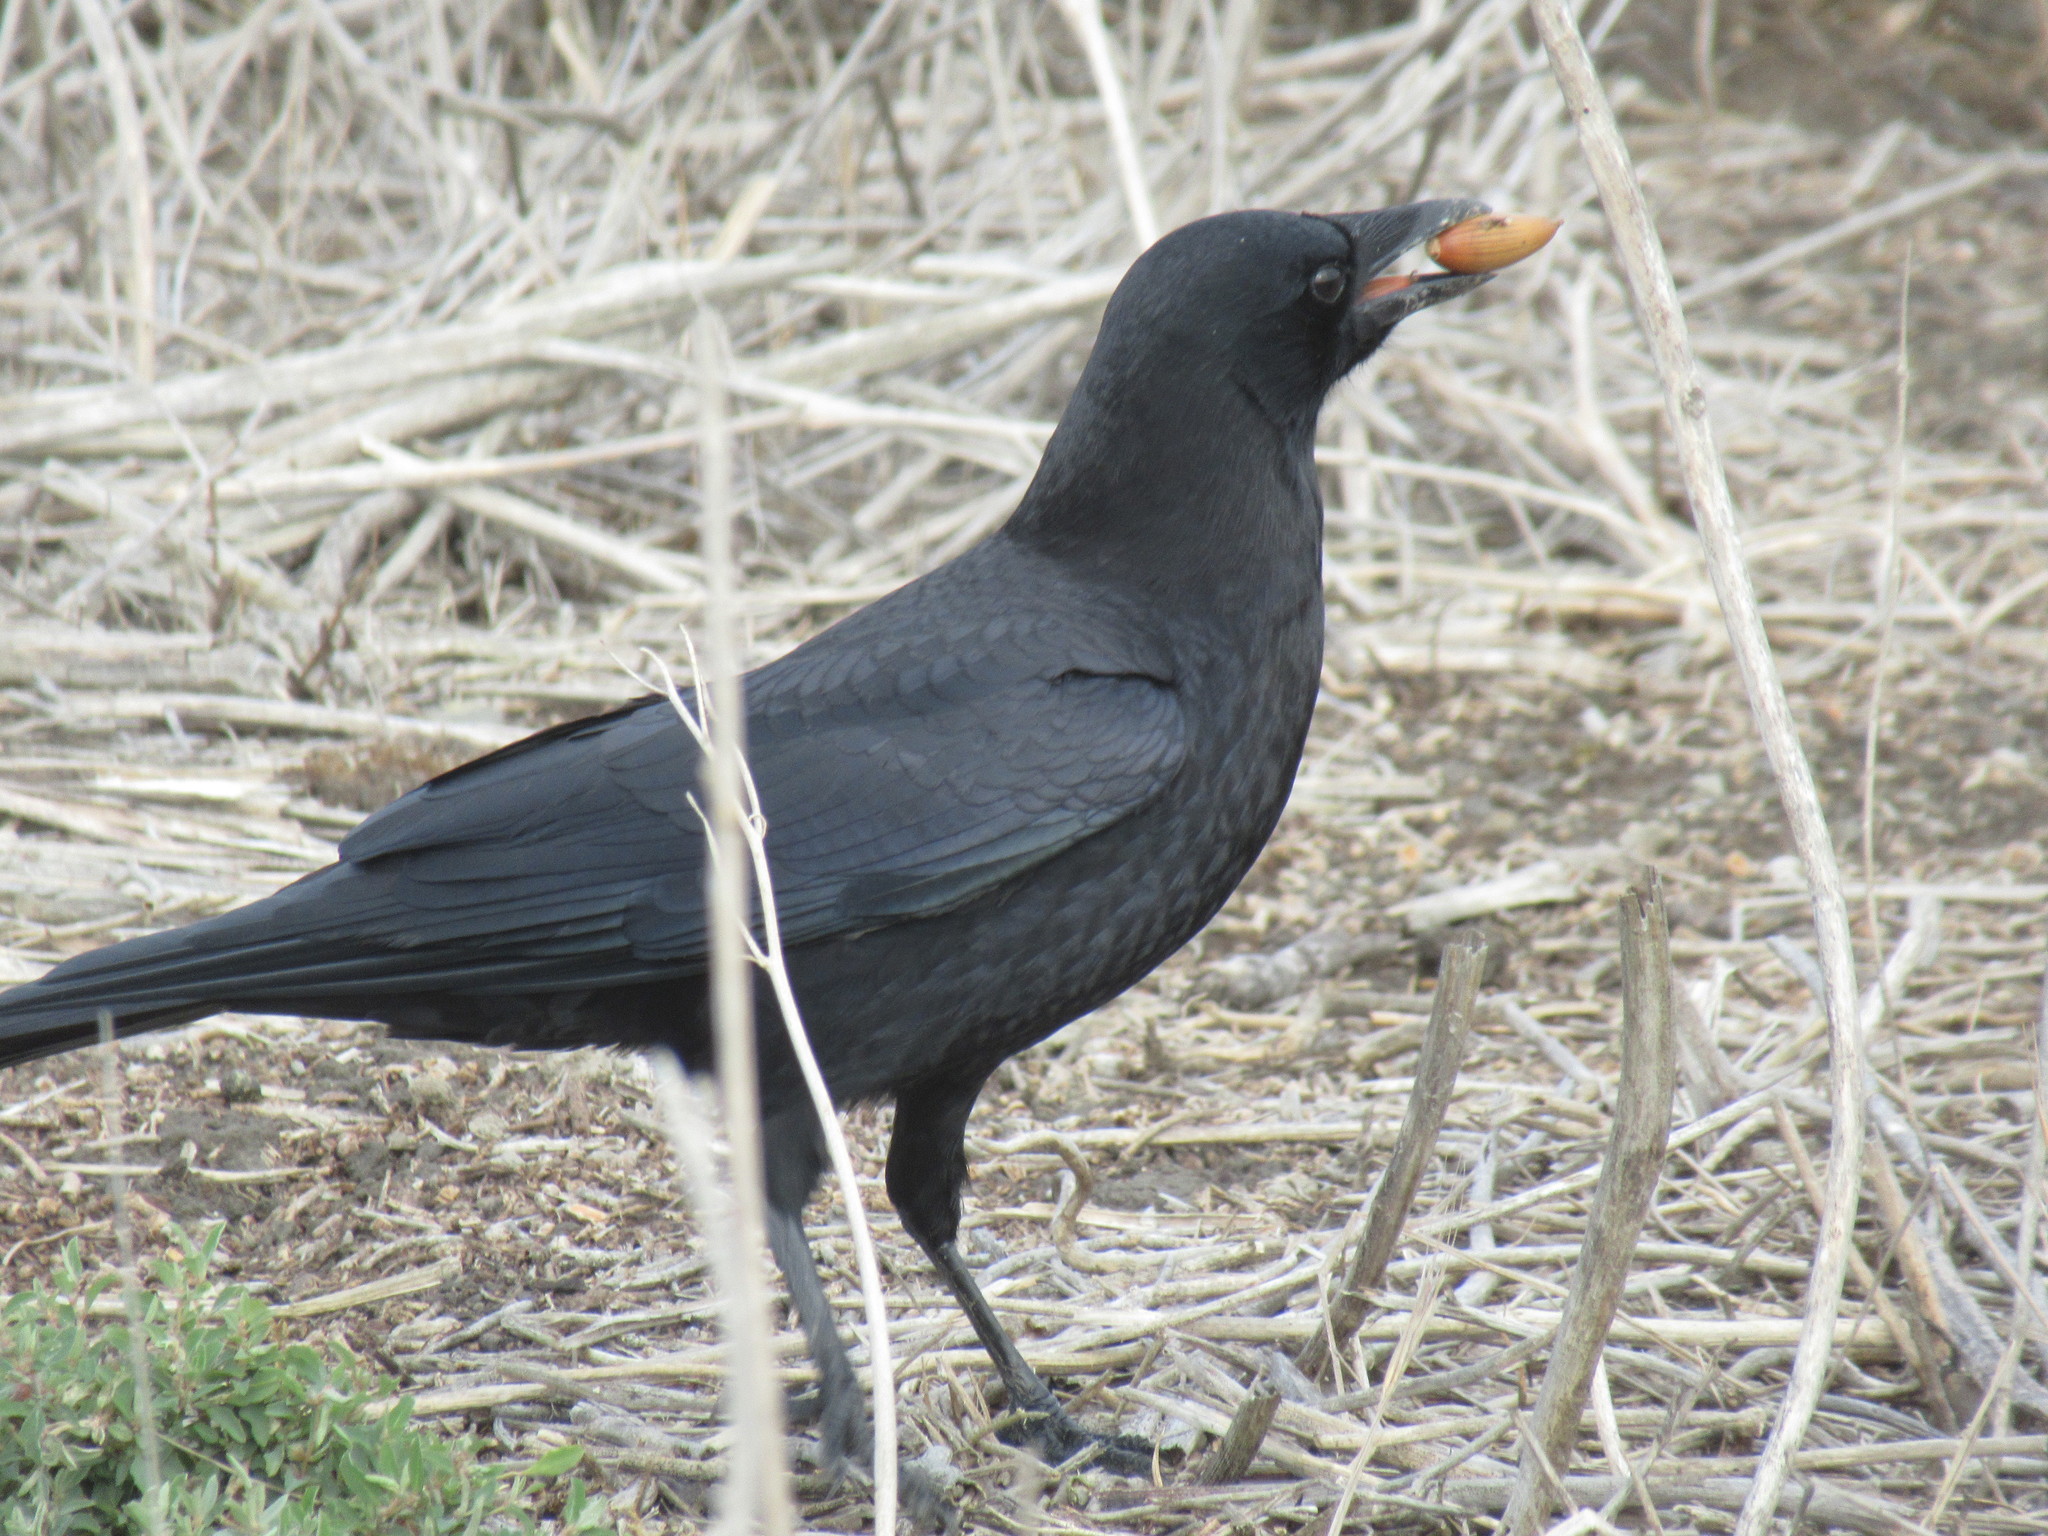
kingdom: Animalia
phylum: Chordata
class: Aves
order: Passeriformes
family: Corvidae
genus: Corvus
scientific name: Corvus brachyrhynchos
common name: American crow
